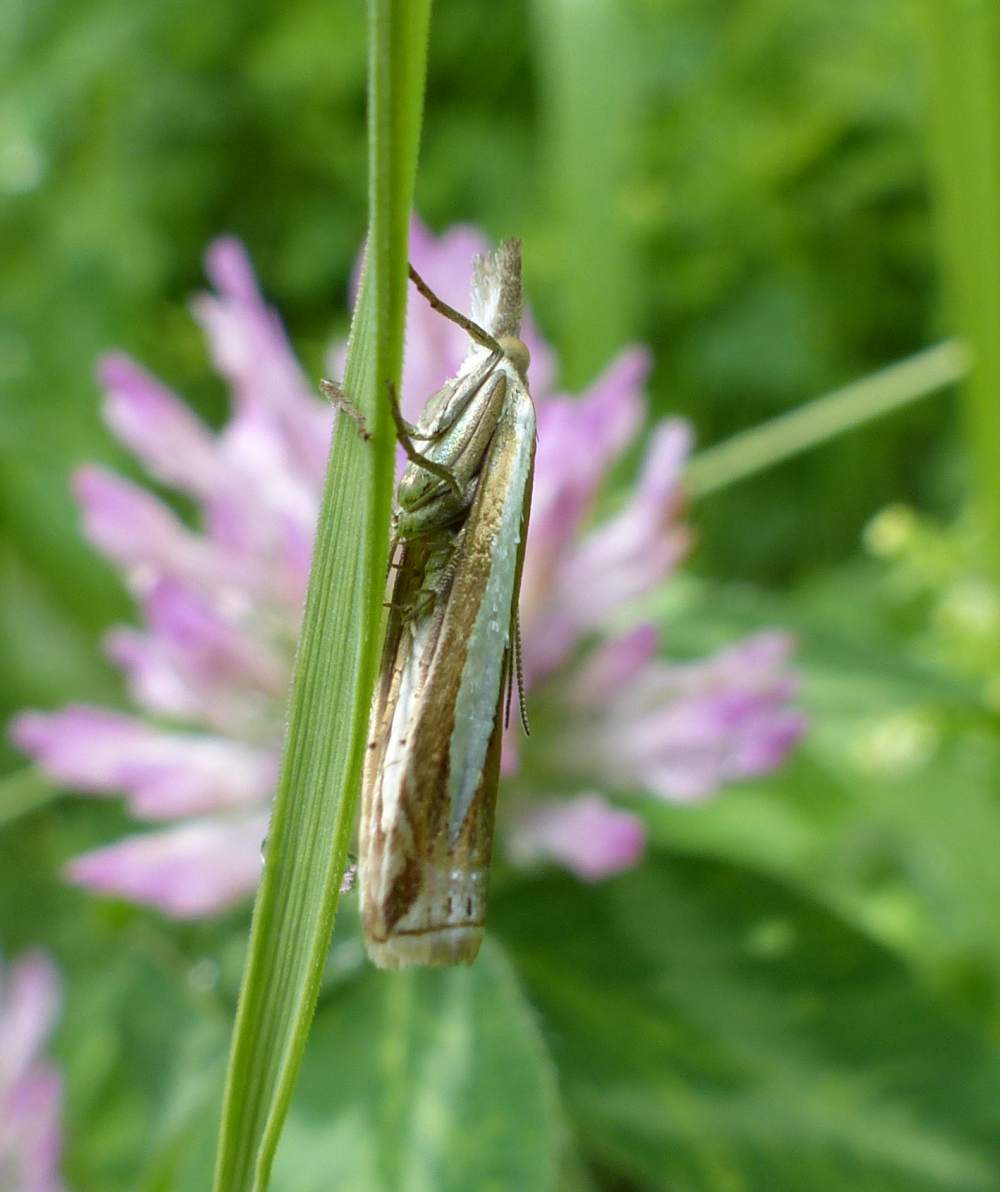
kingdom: Animalia
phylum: Arthropoda
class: Insecta
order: Lepidoptera
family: Crambidae
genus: Crambus
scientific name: Crambus praefectellus
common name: Common grass-veneer
